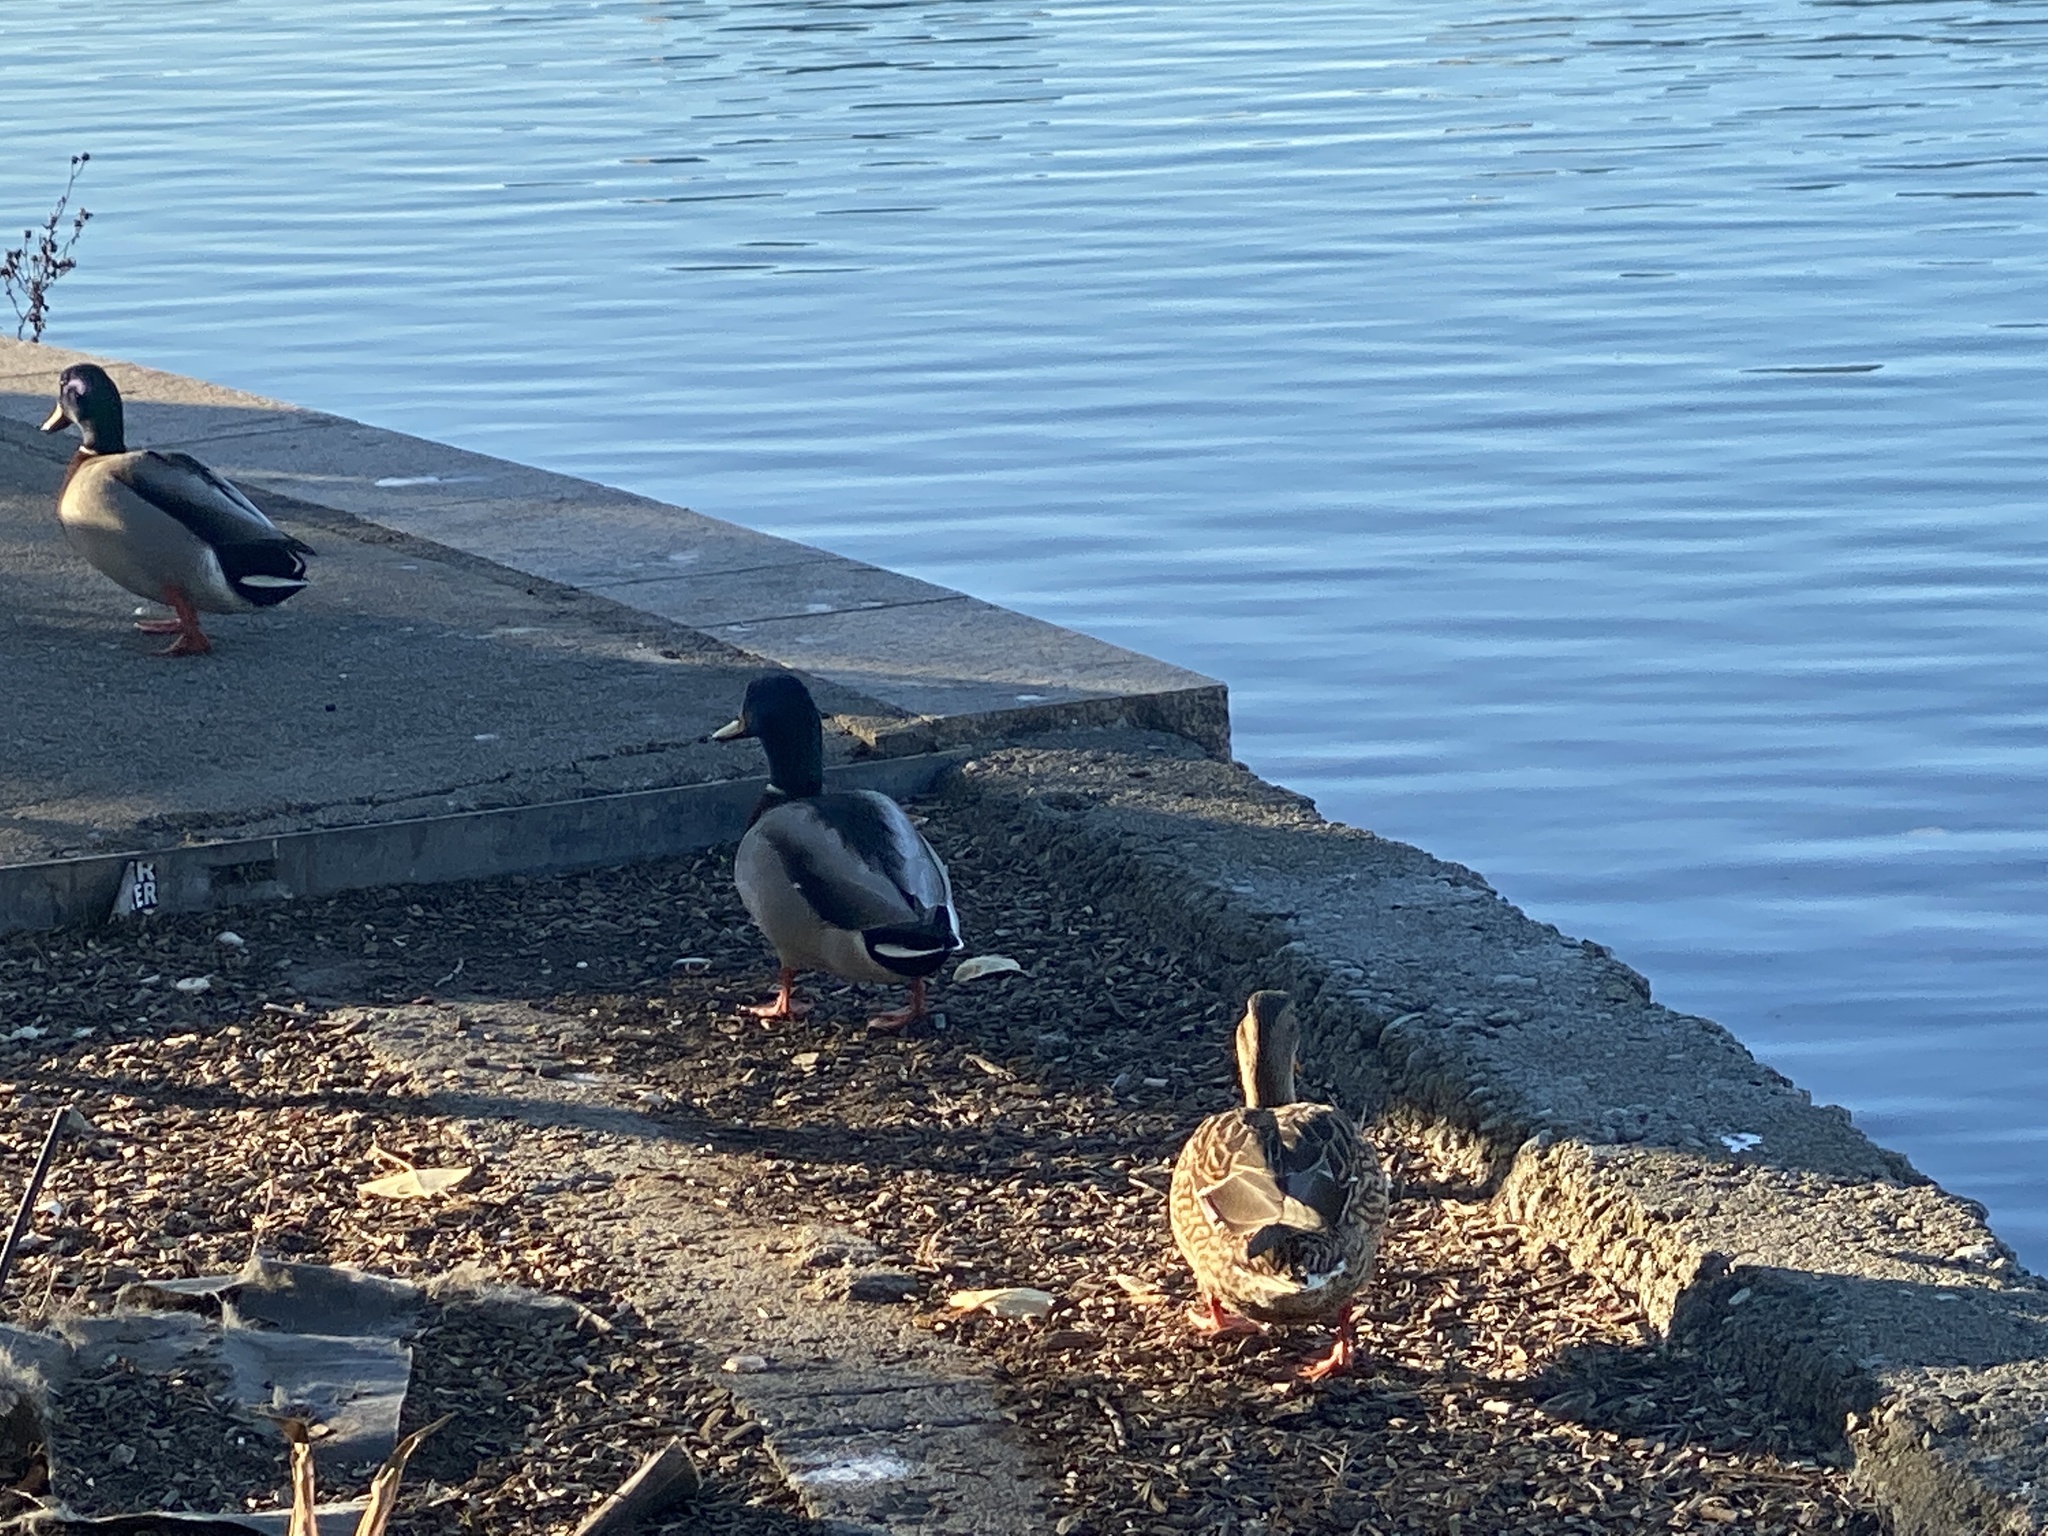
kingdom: Animalia
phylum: Chordata
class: Aves
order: Anseriformes
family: Anatidae
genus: Anas
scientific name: Anas platyrhynchos
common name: Mallard
